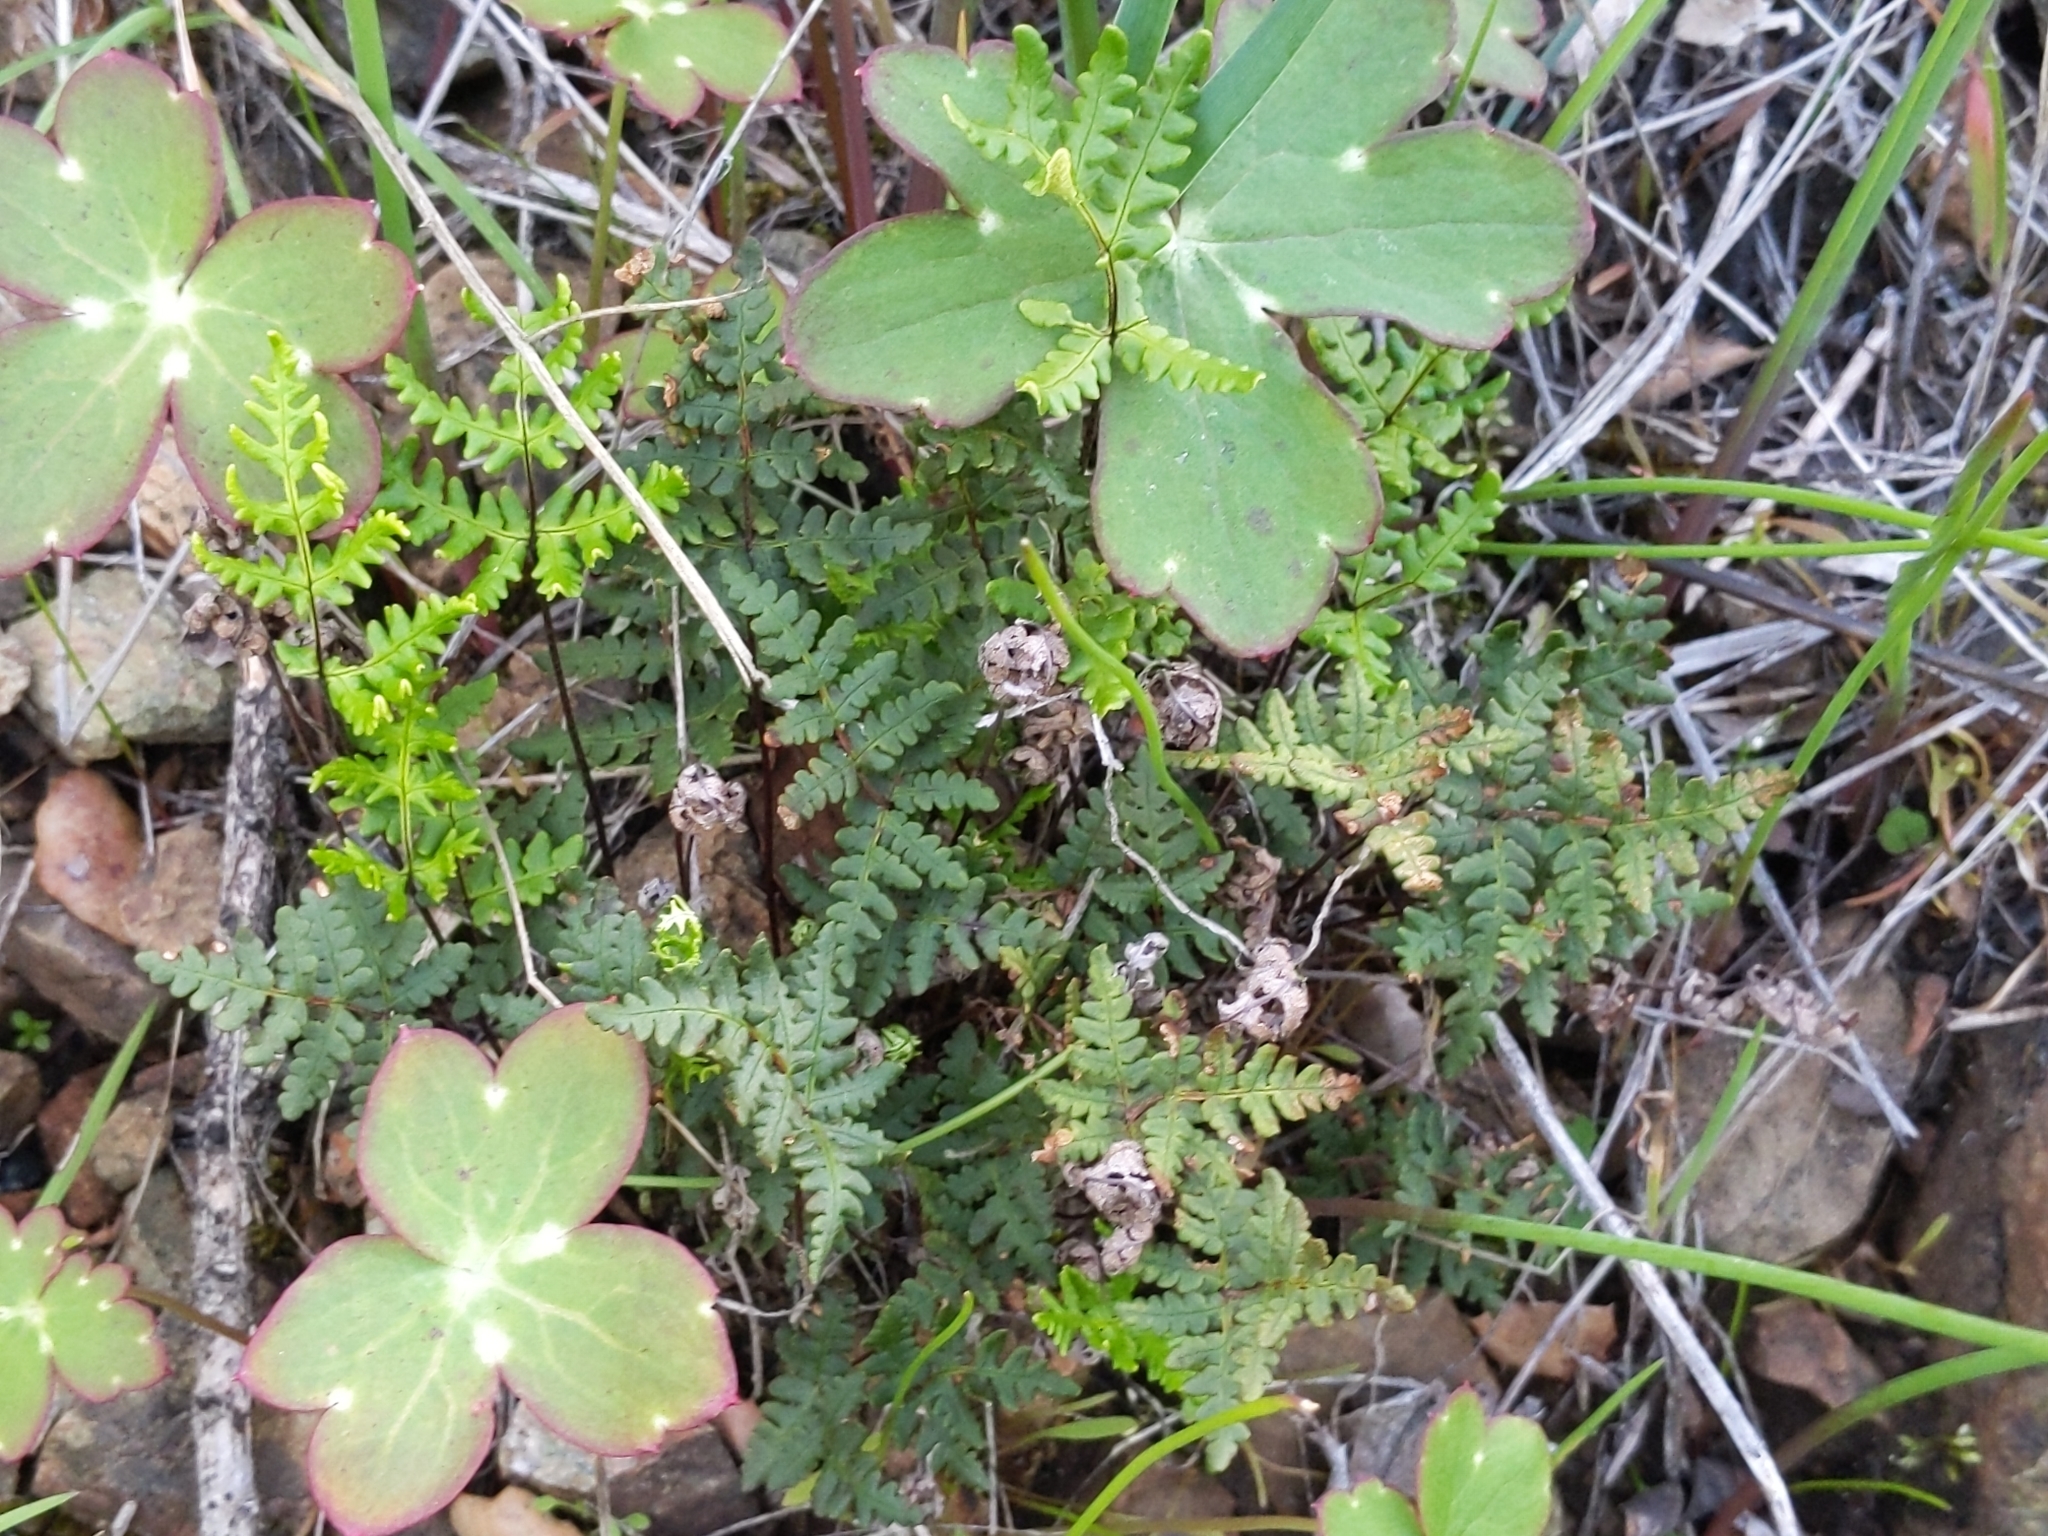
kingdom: Plantae
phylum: Tracheophyta
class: Polypodiopsida
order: Polypodiales
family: Pteridaceae
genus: Pentagramma
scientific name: Pentagramma triangularis
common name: Gold fern
